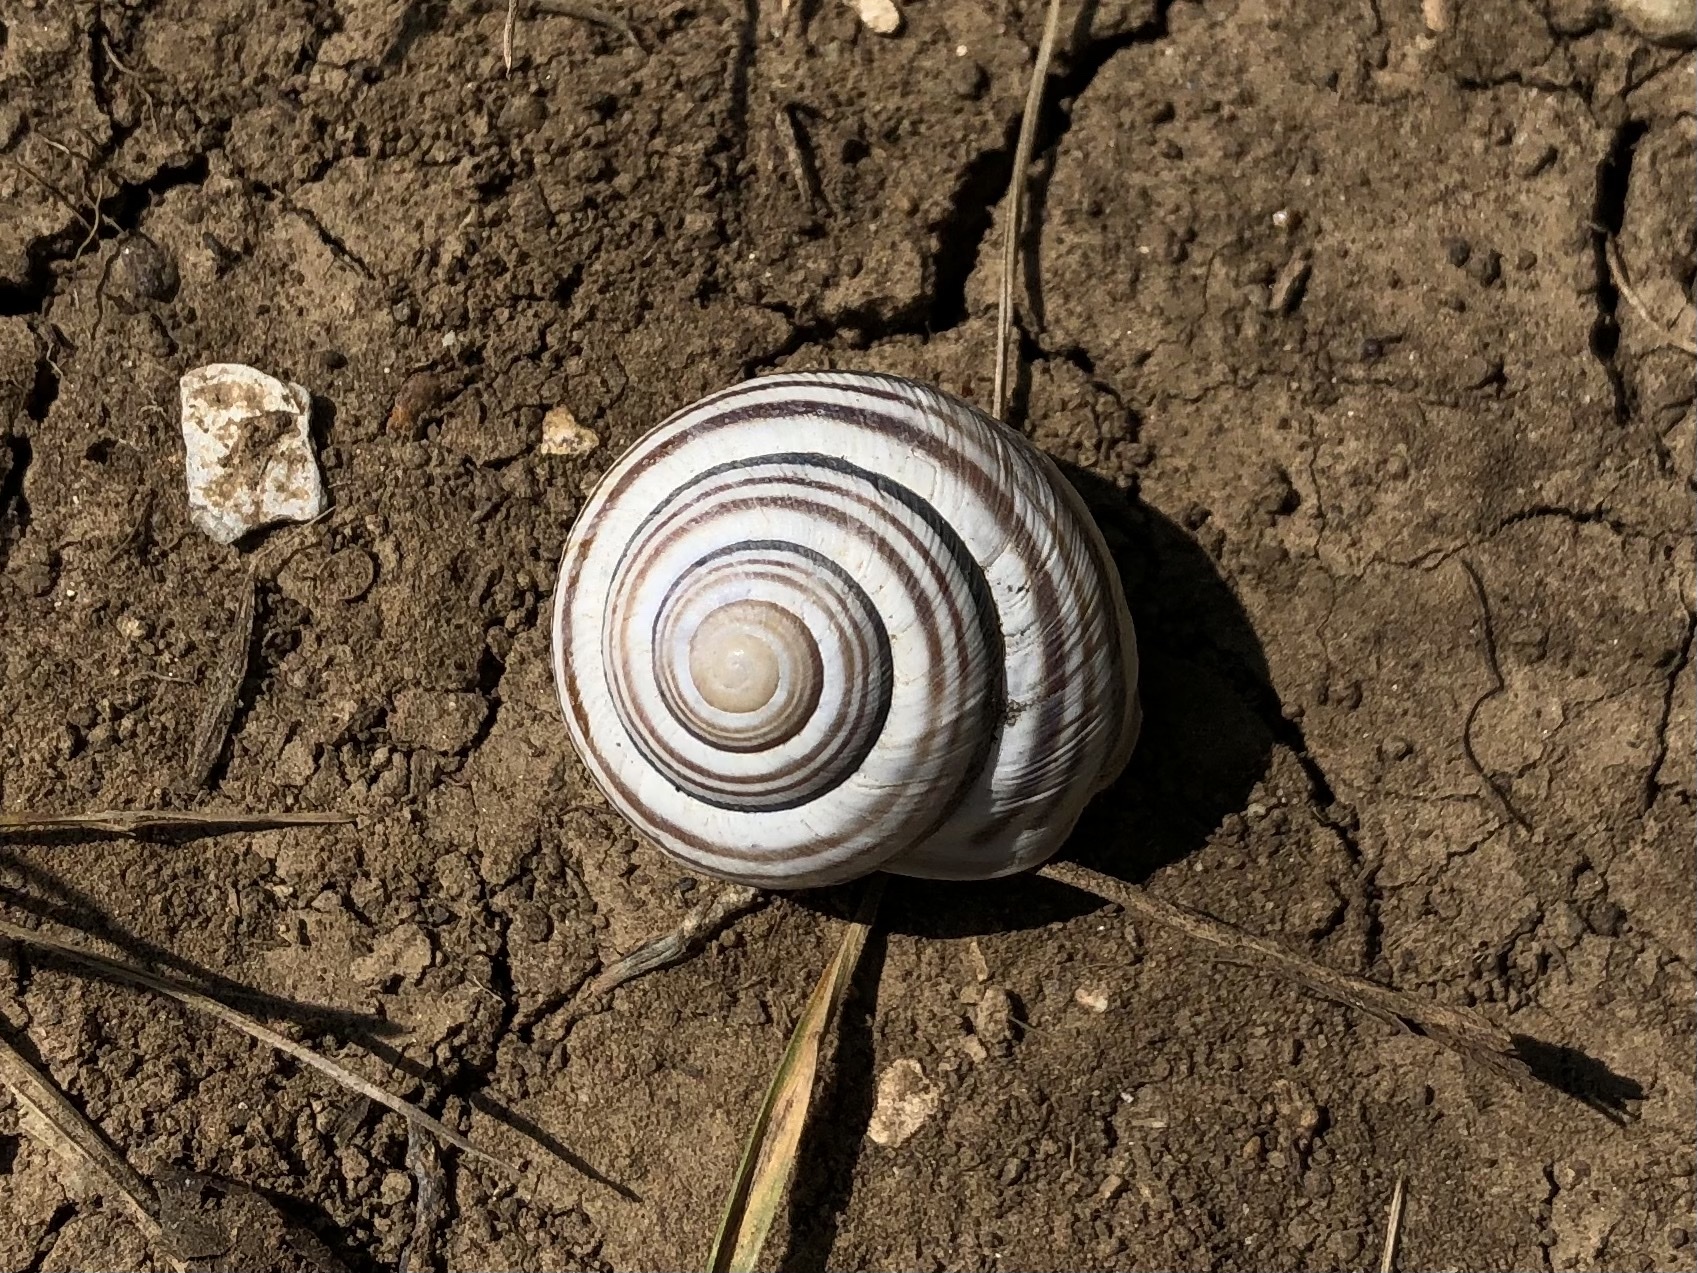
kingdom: Animalia
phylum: Mollusca
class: Gastropoda
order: Stylommatophora
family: Helicidae
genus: Caucasotachea
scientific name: Caucasotachea vindobonensis
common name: European helicid land snail
